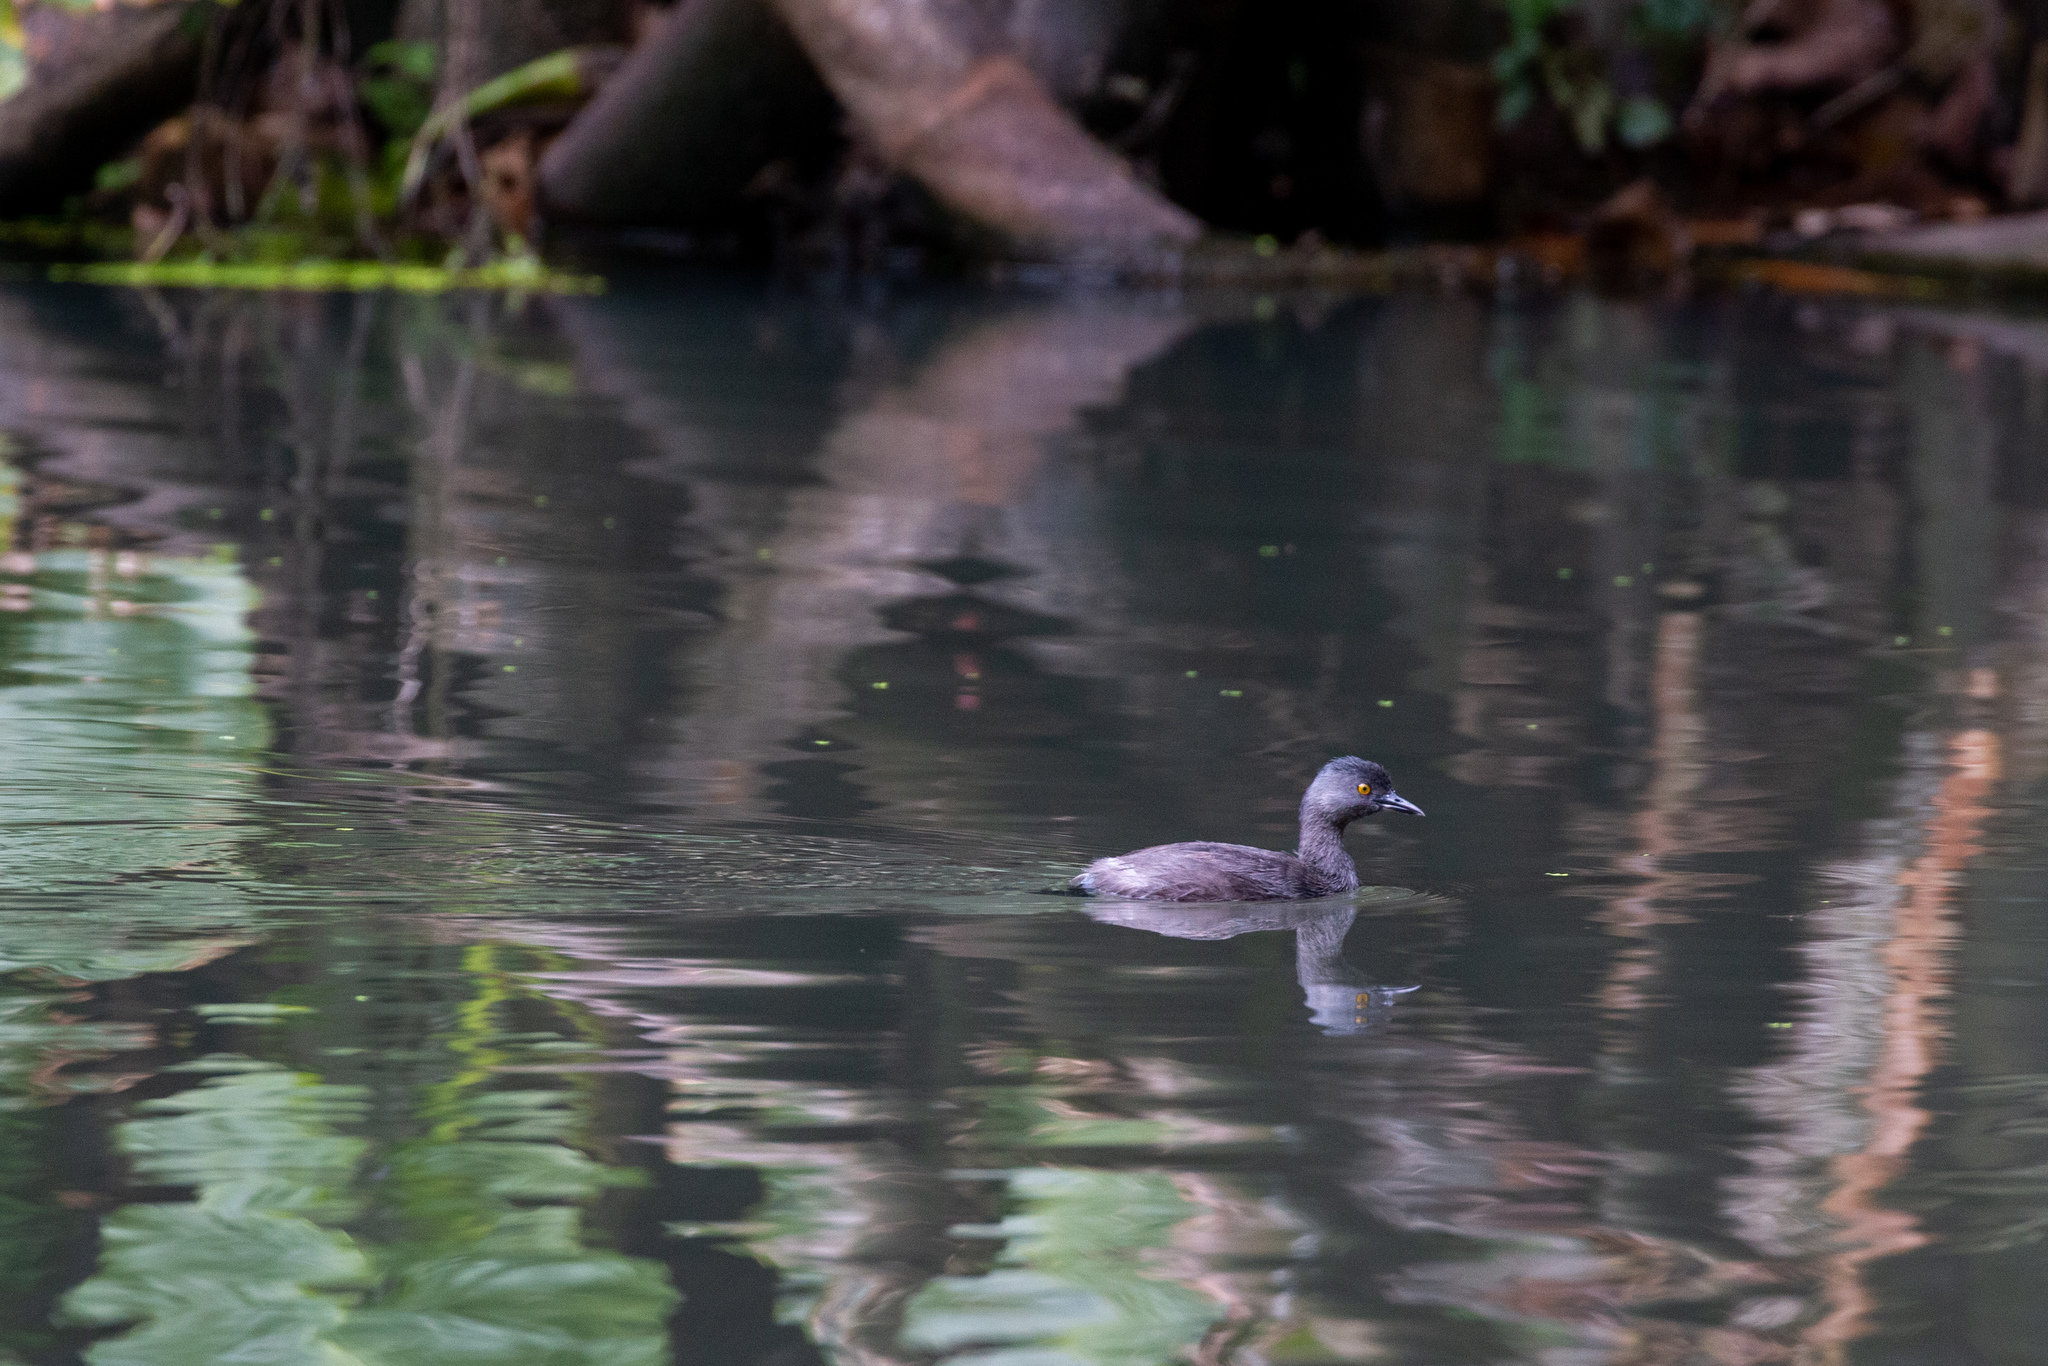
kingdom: Animalia
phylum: Chordata
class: Aves
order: Podicipediformes
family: Podicipedidae
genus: Tachybaptus
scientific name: Tachybaptus dominicus
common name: Least grebe
